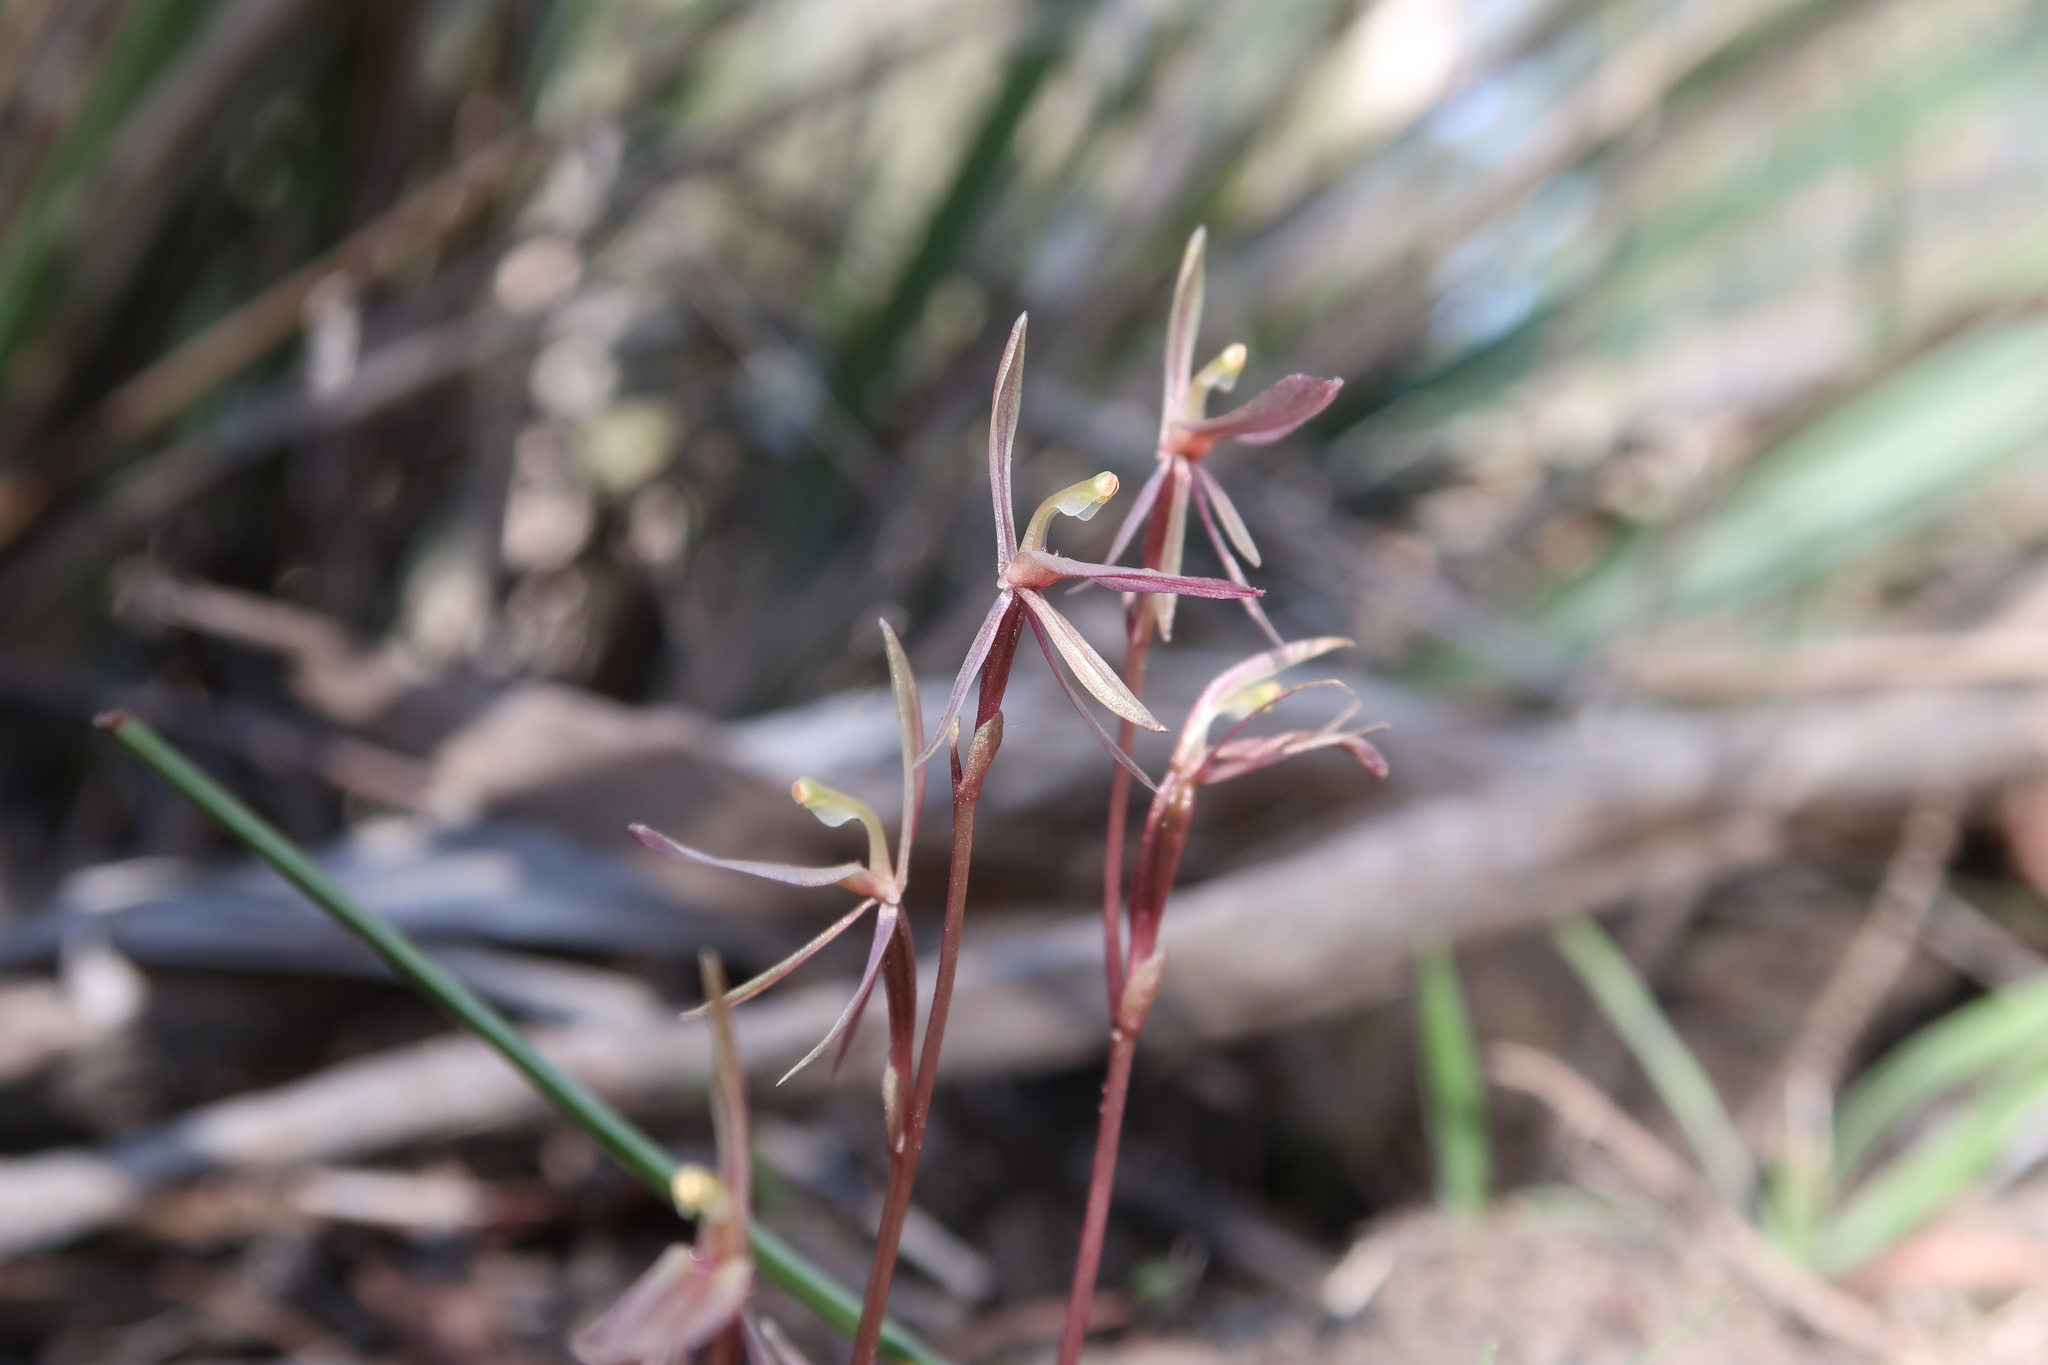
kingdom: Plantae
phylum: Tracheophyta
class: Liliopsida
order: Asparagales
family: Orchidaceae
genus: Cyrtostylis
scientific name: Cyrtostylis reniformis
